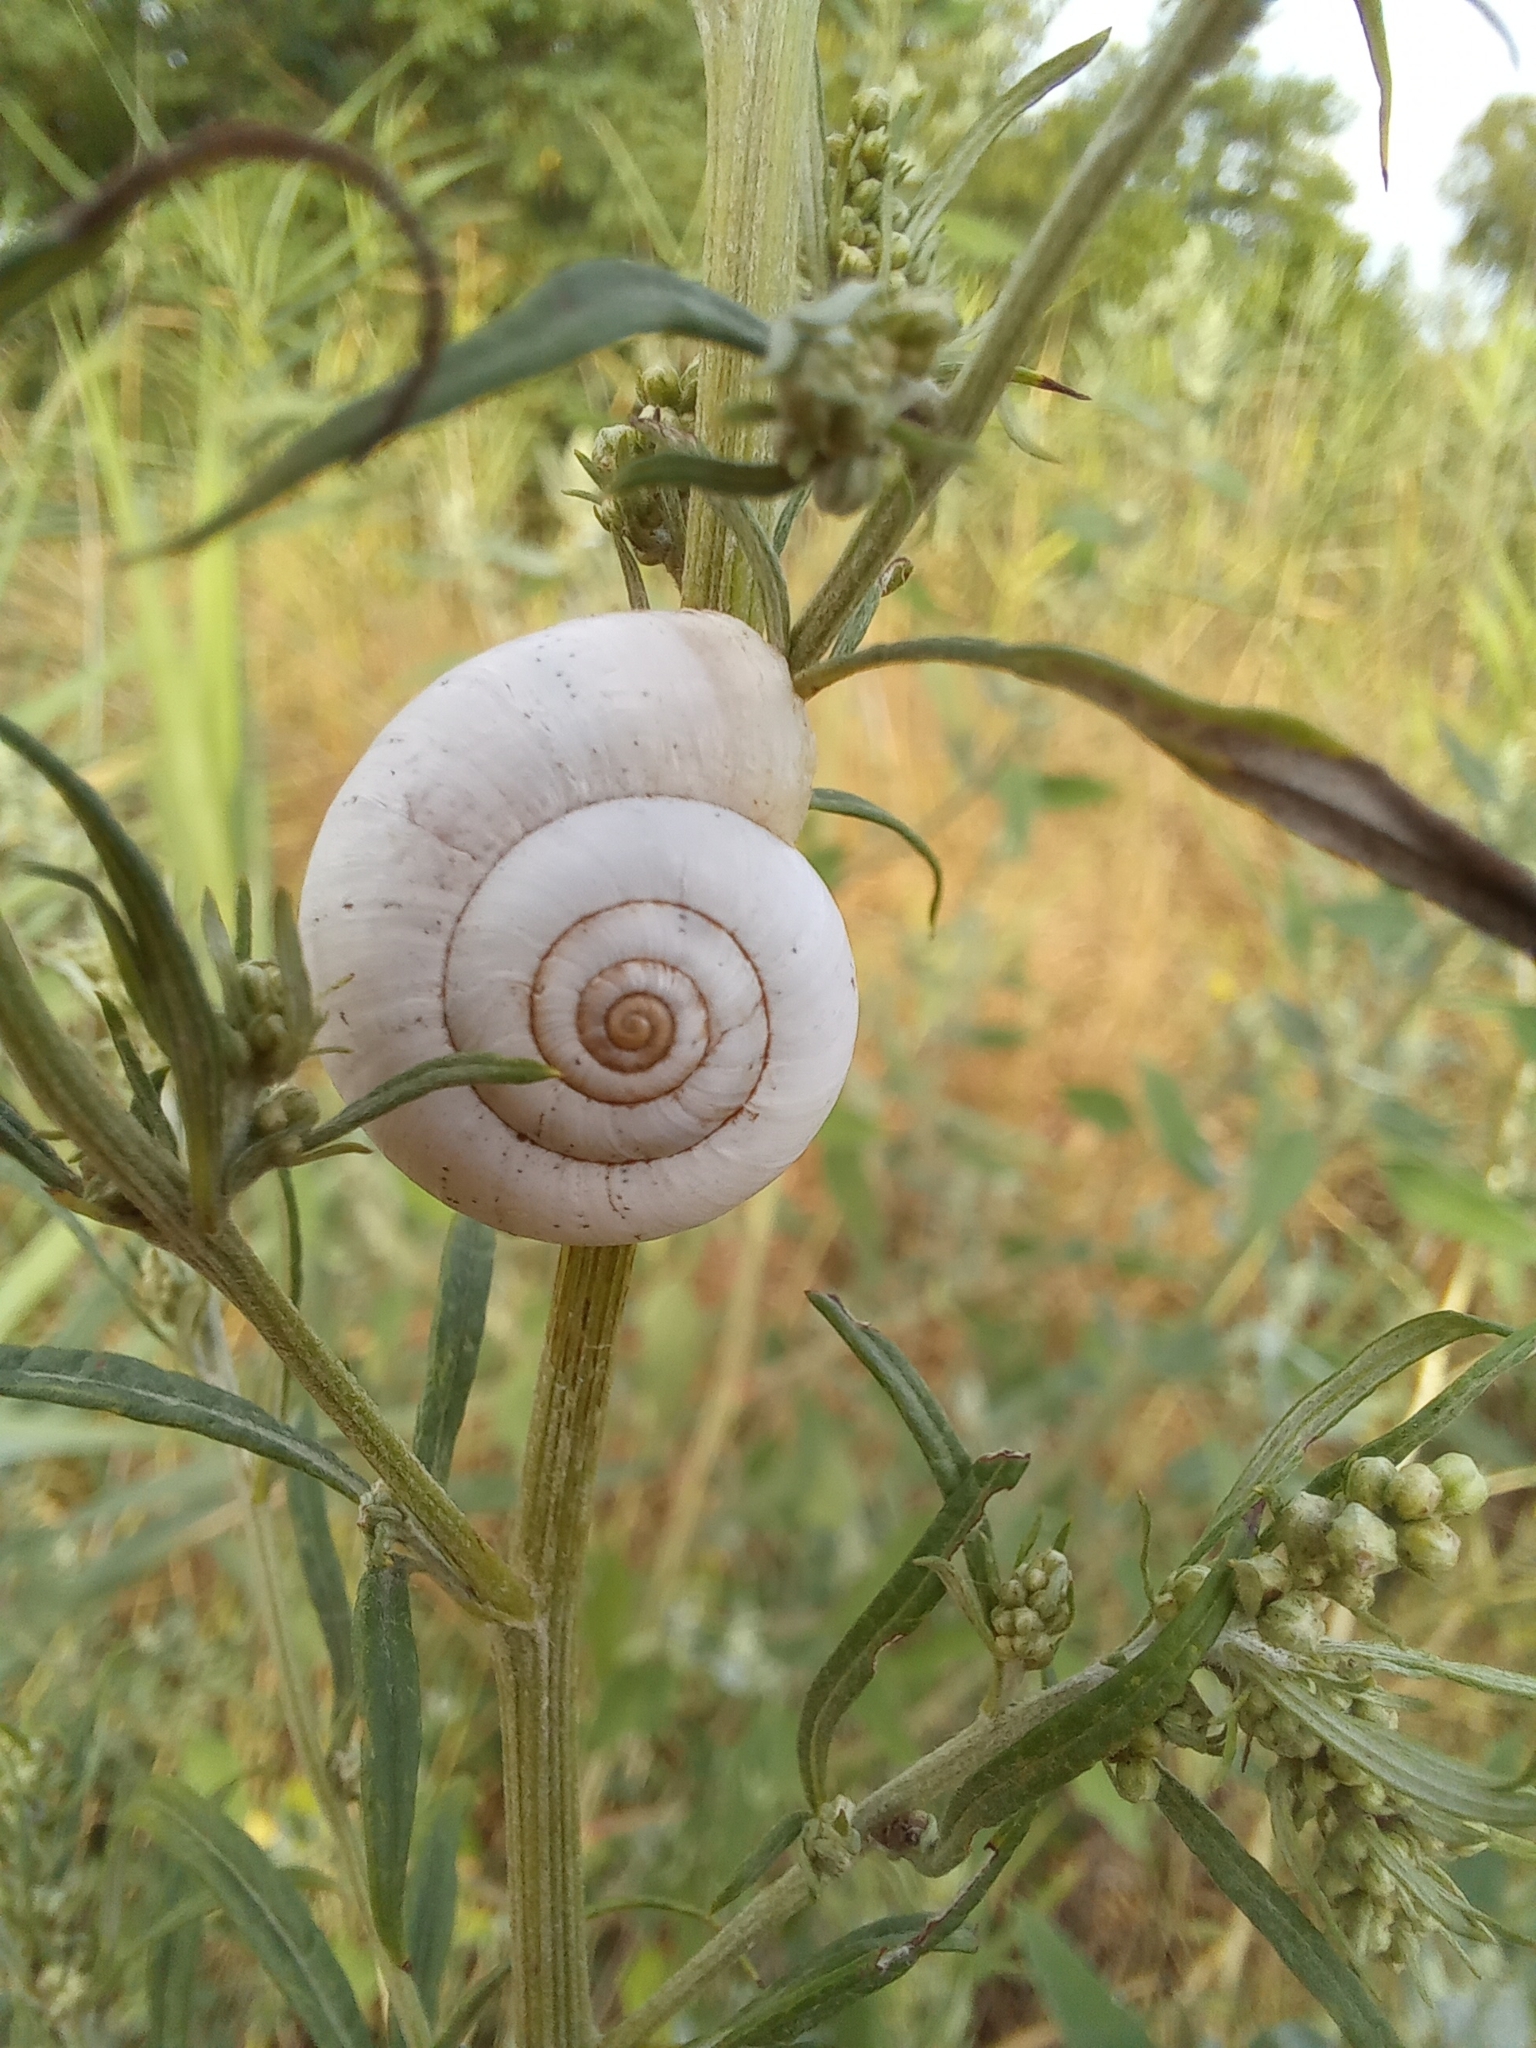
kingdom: Animalia
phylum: Mollusca
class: Gastropoda
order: Stylommatophora
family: Geomitridae
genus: Xeropicta
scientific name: Xeropicta derbentina
